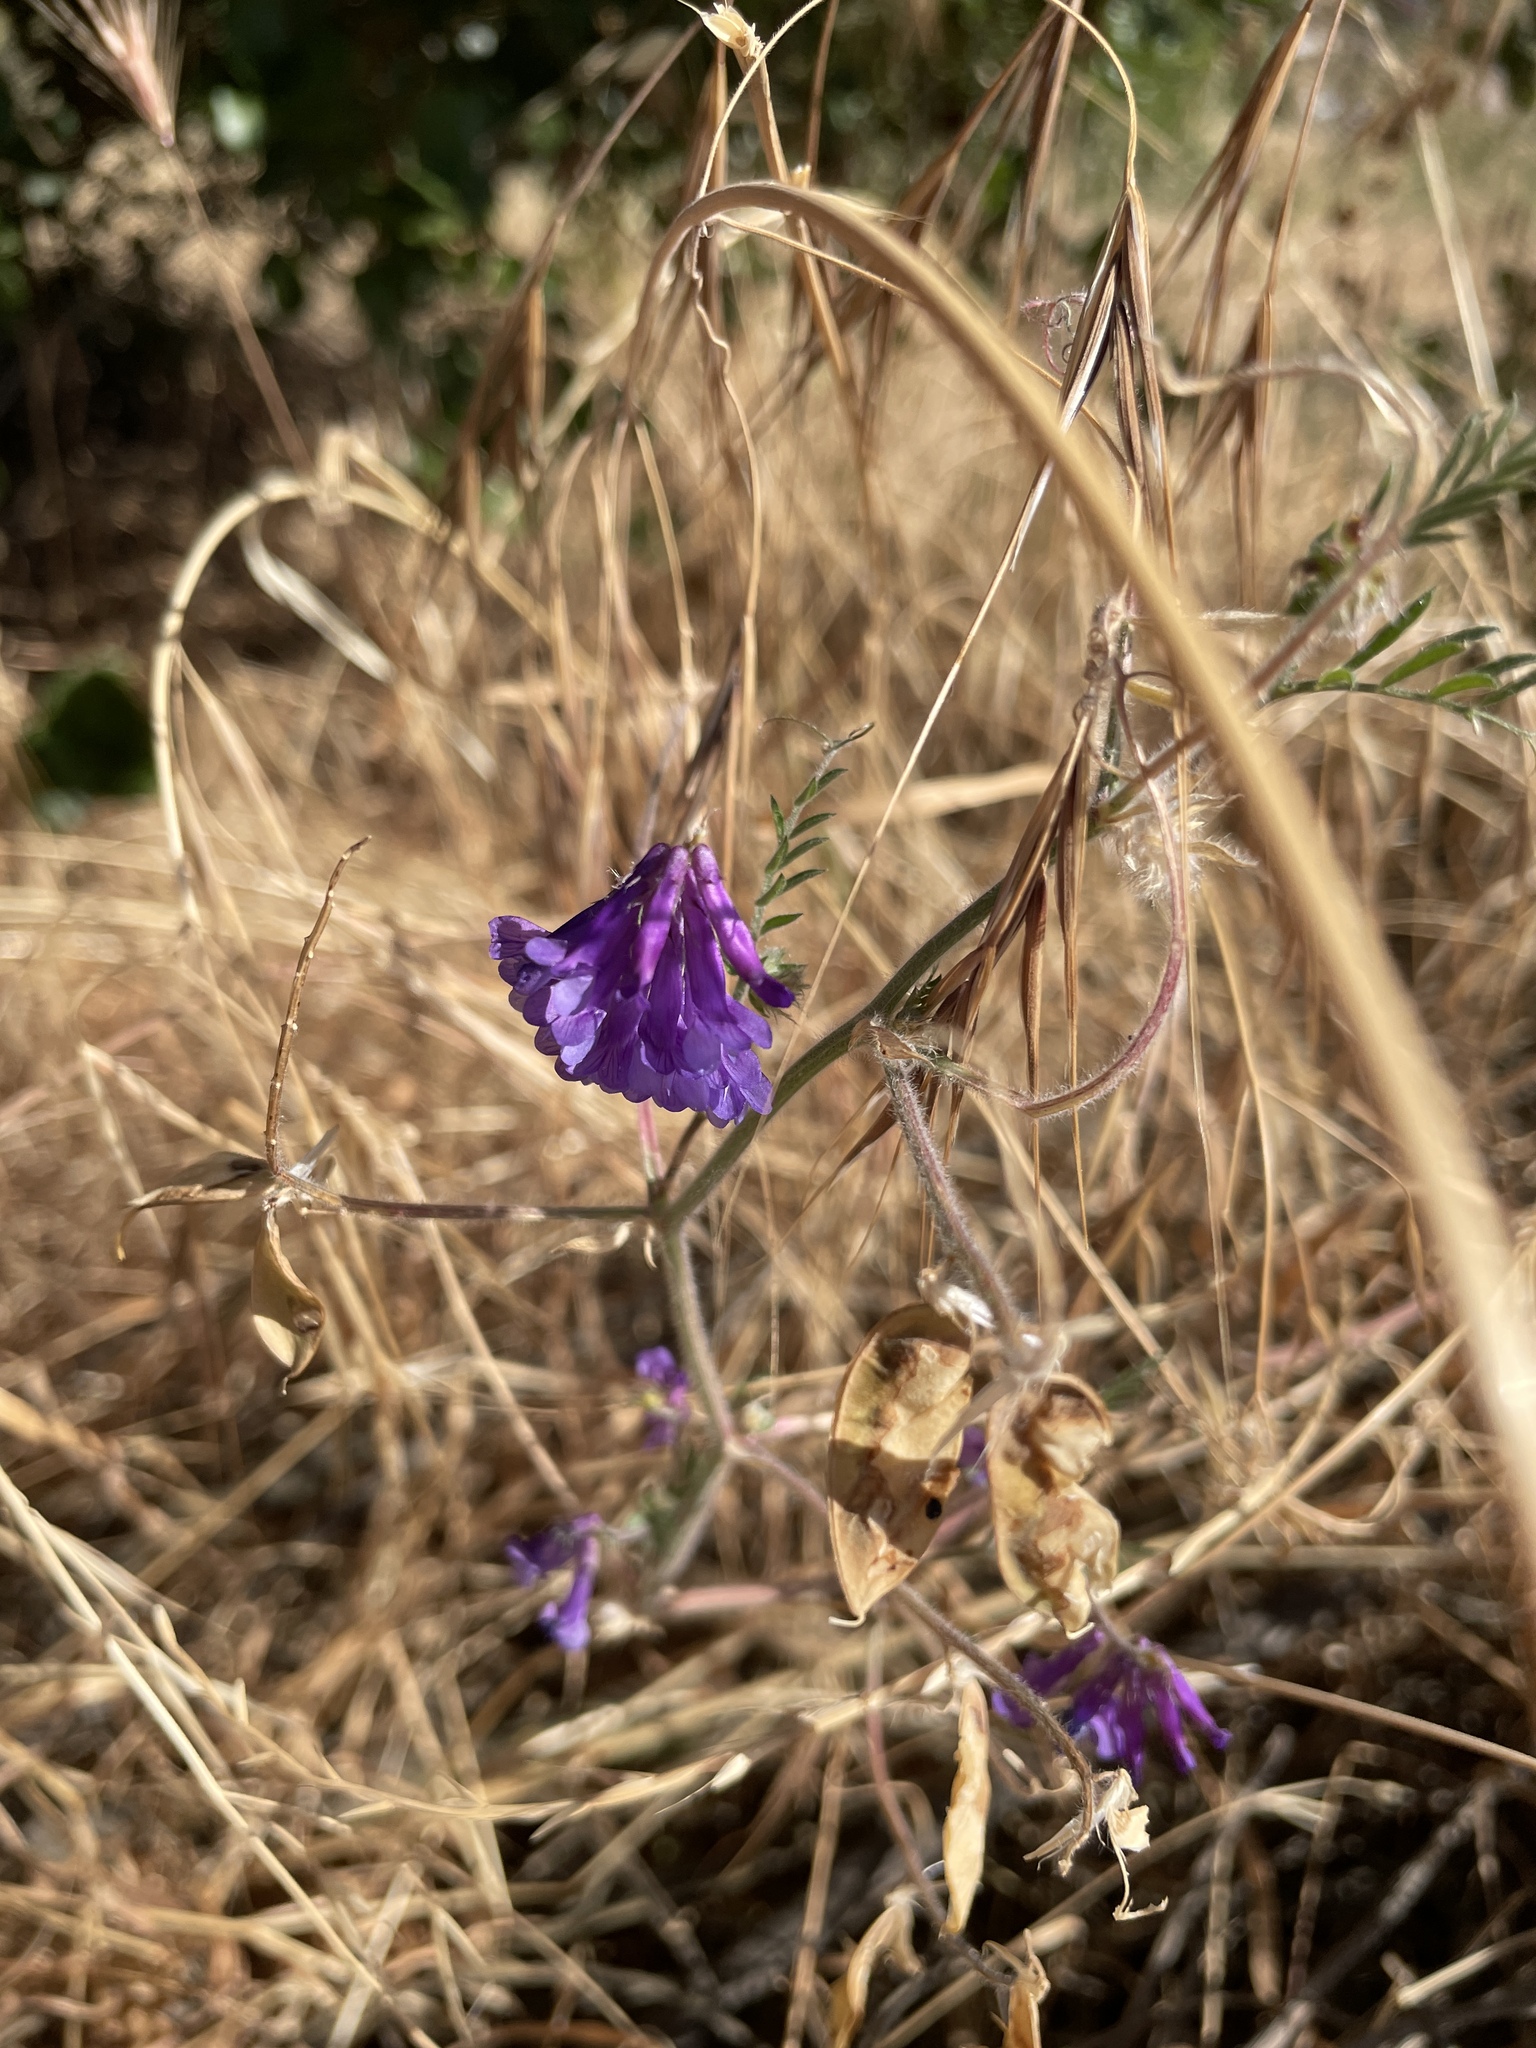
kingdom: Plantae
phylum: Tracheophyta
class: Magnoliopsida
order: Fabales
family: Fabaceae
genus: Vicia
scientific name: Vicia villosa
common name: Fodder vetch
